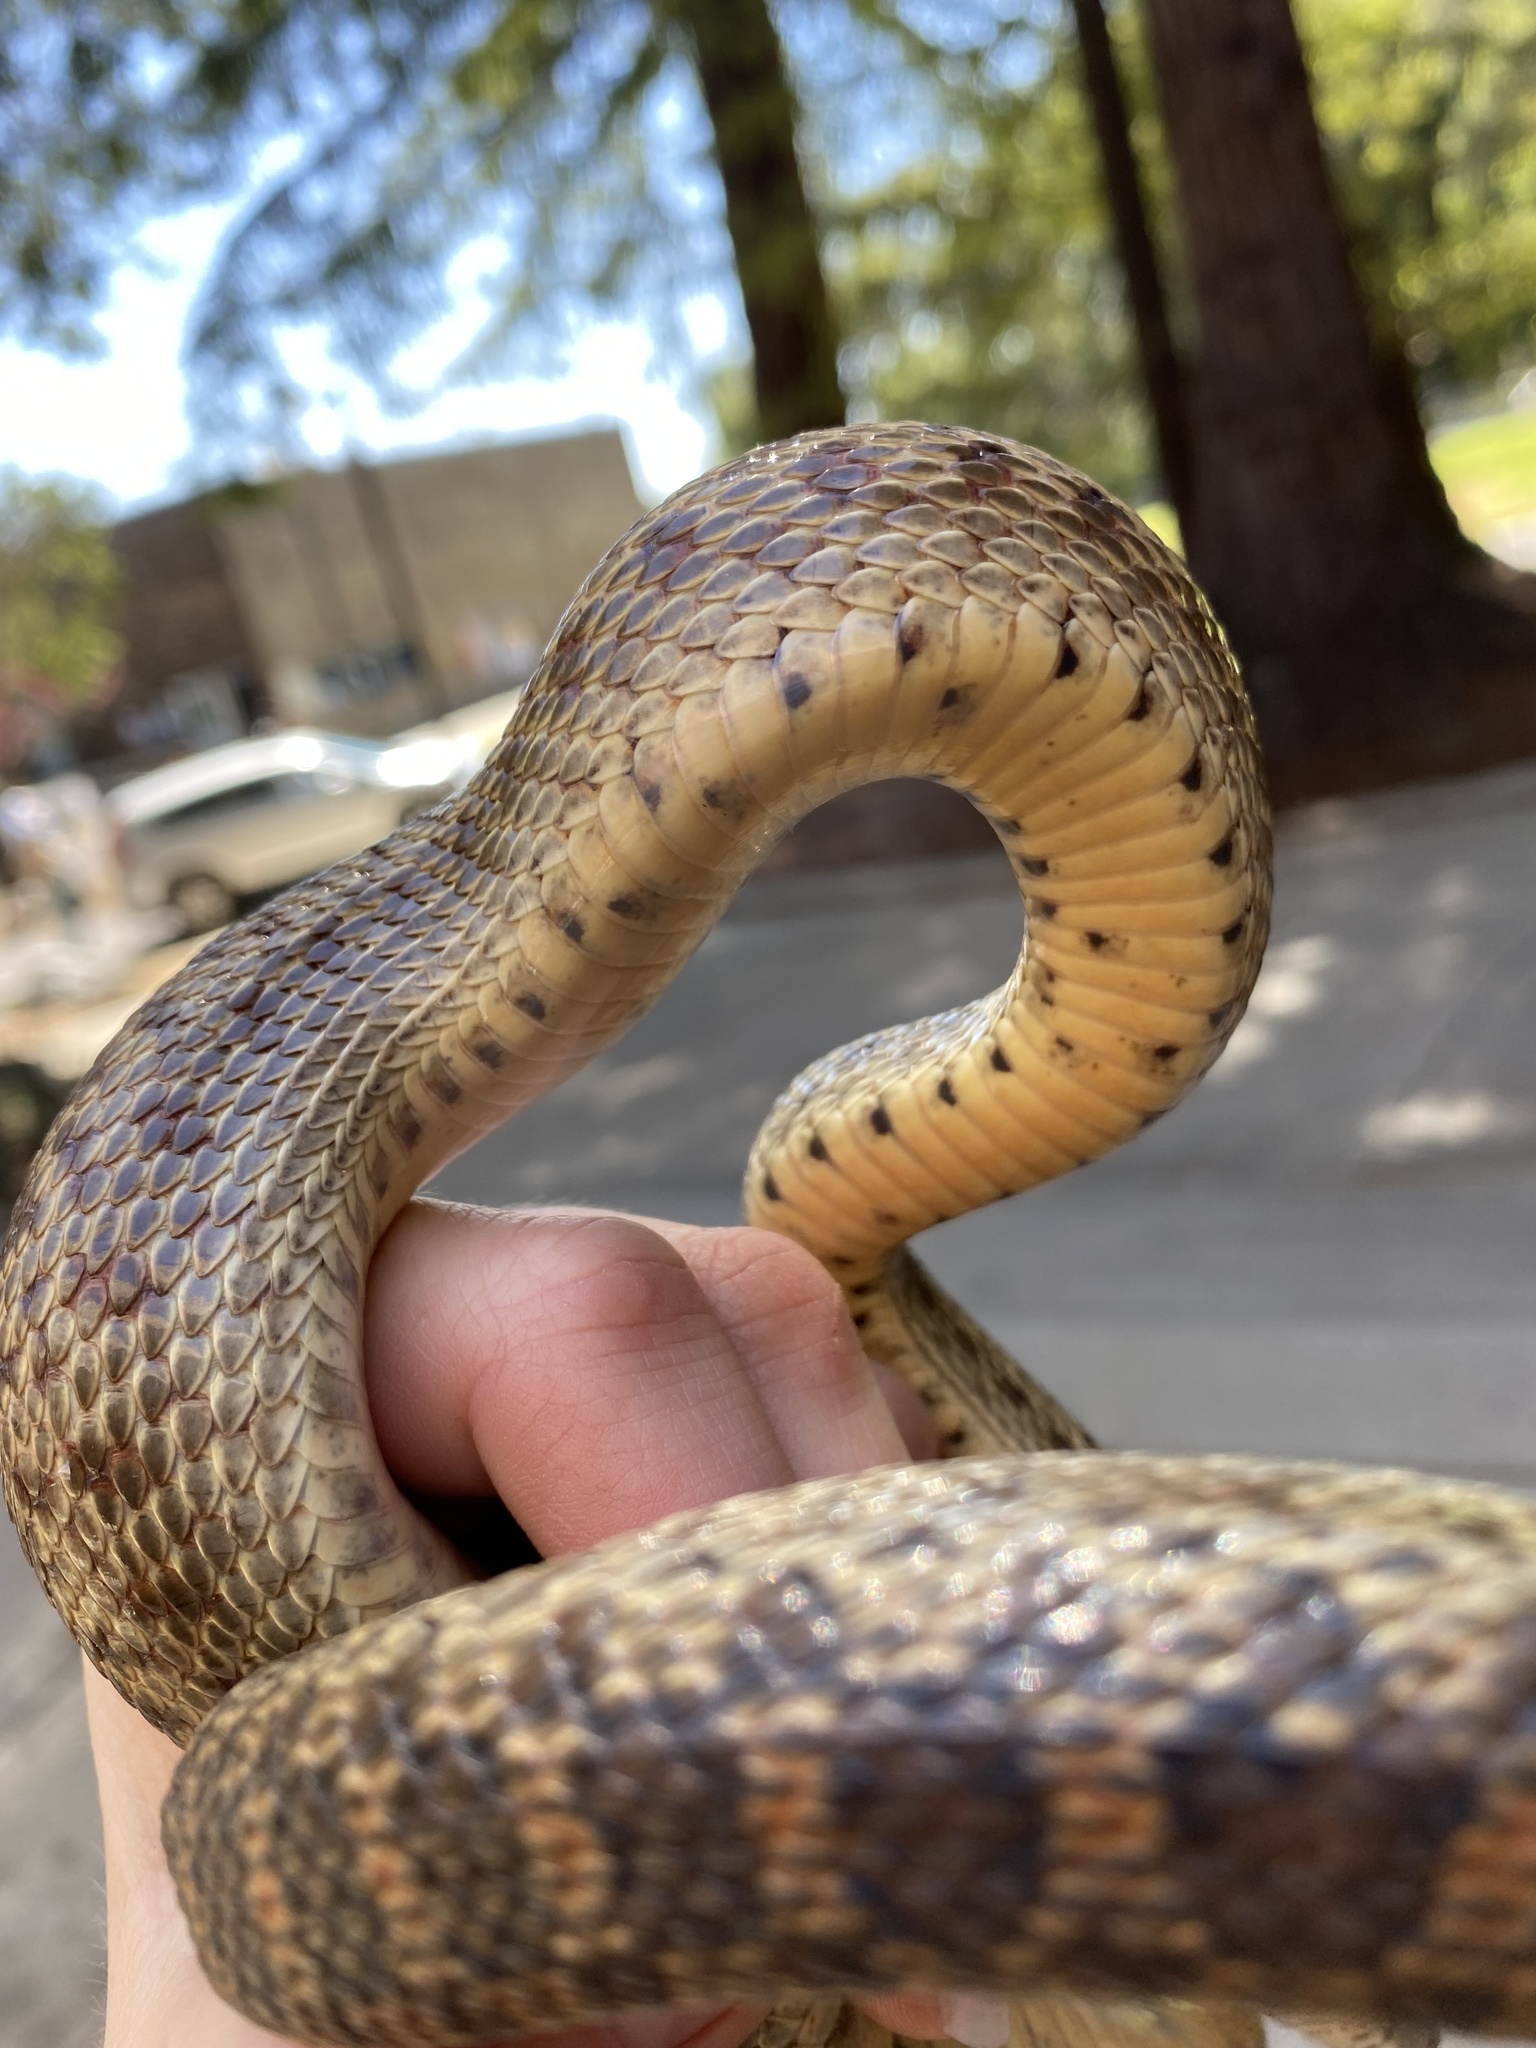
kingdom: Animalia
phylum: Chordata
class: Squamata
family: Colubridae
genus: Pituophis
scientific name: Pituophis catenifer
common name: Gopher snake
